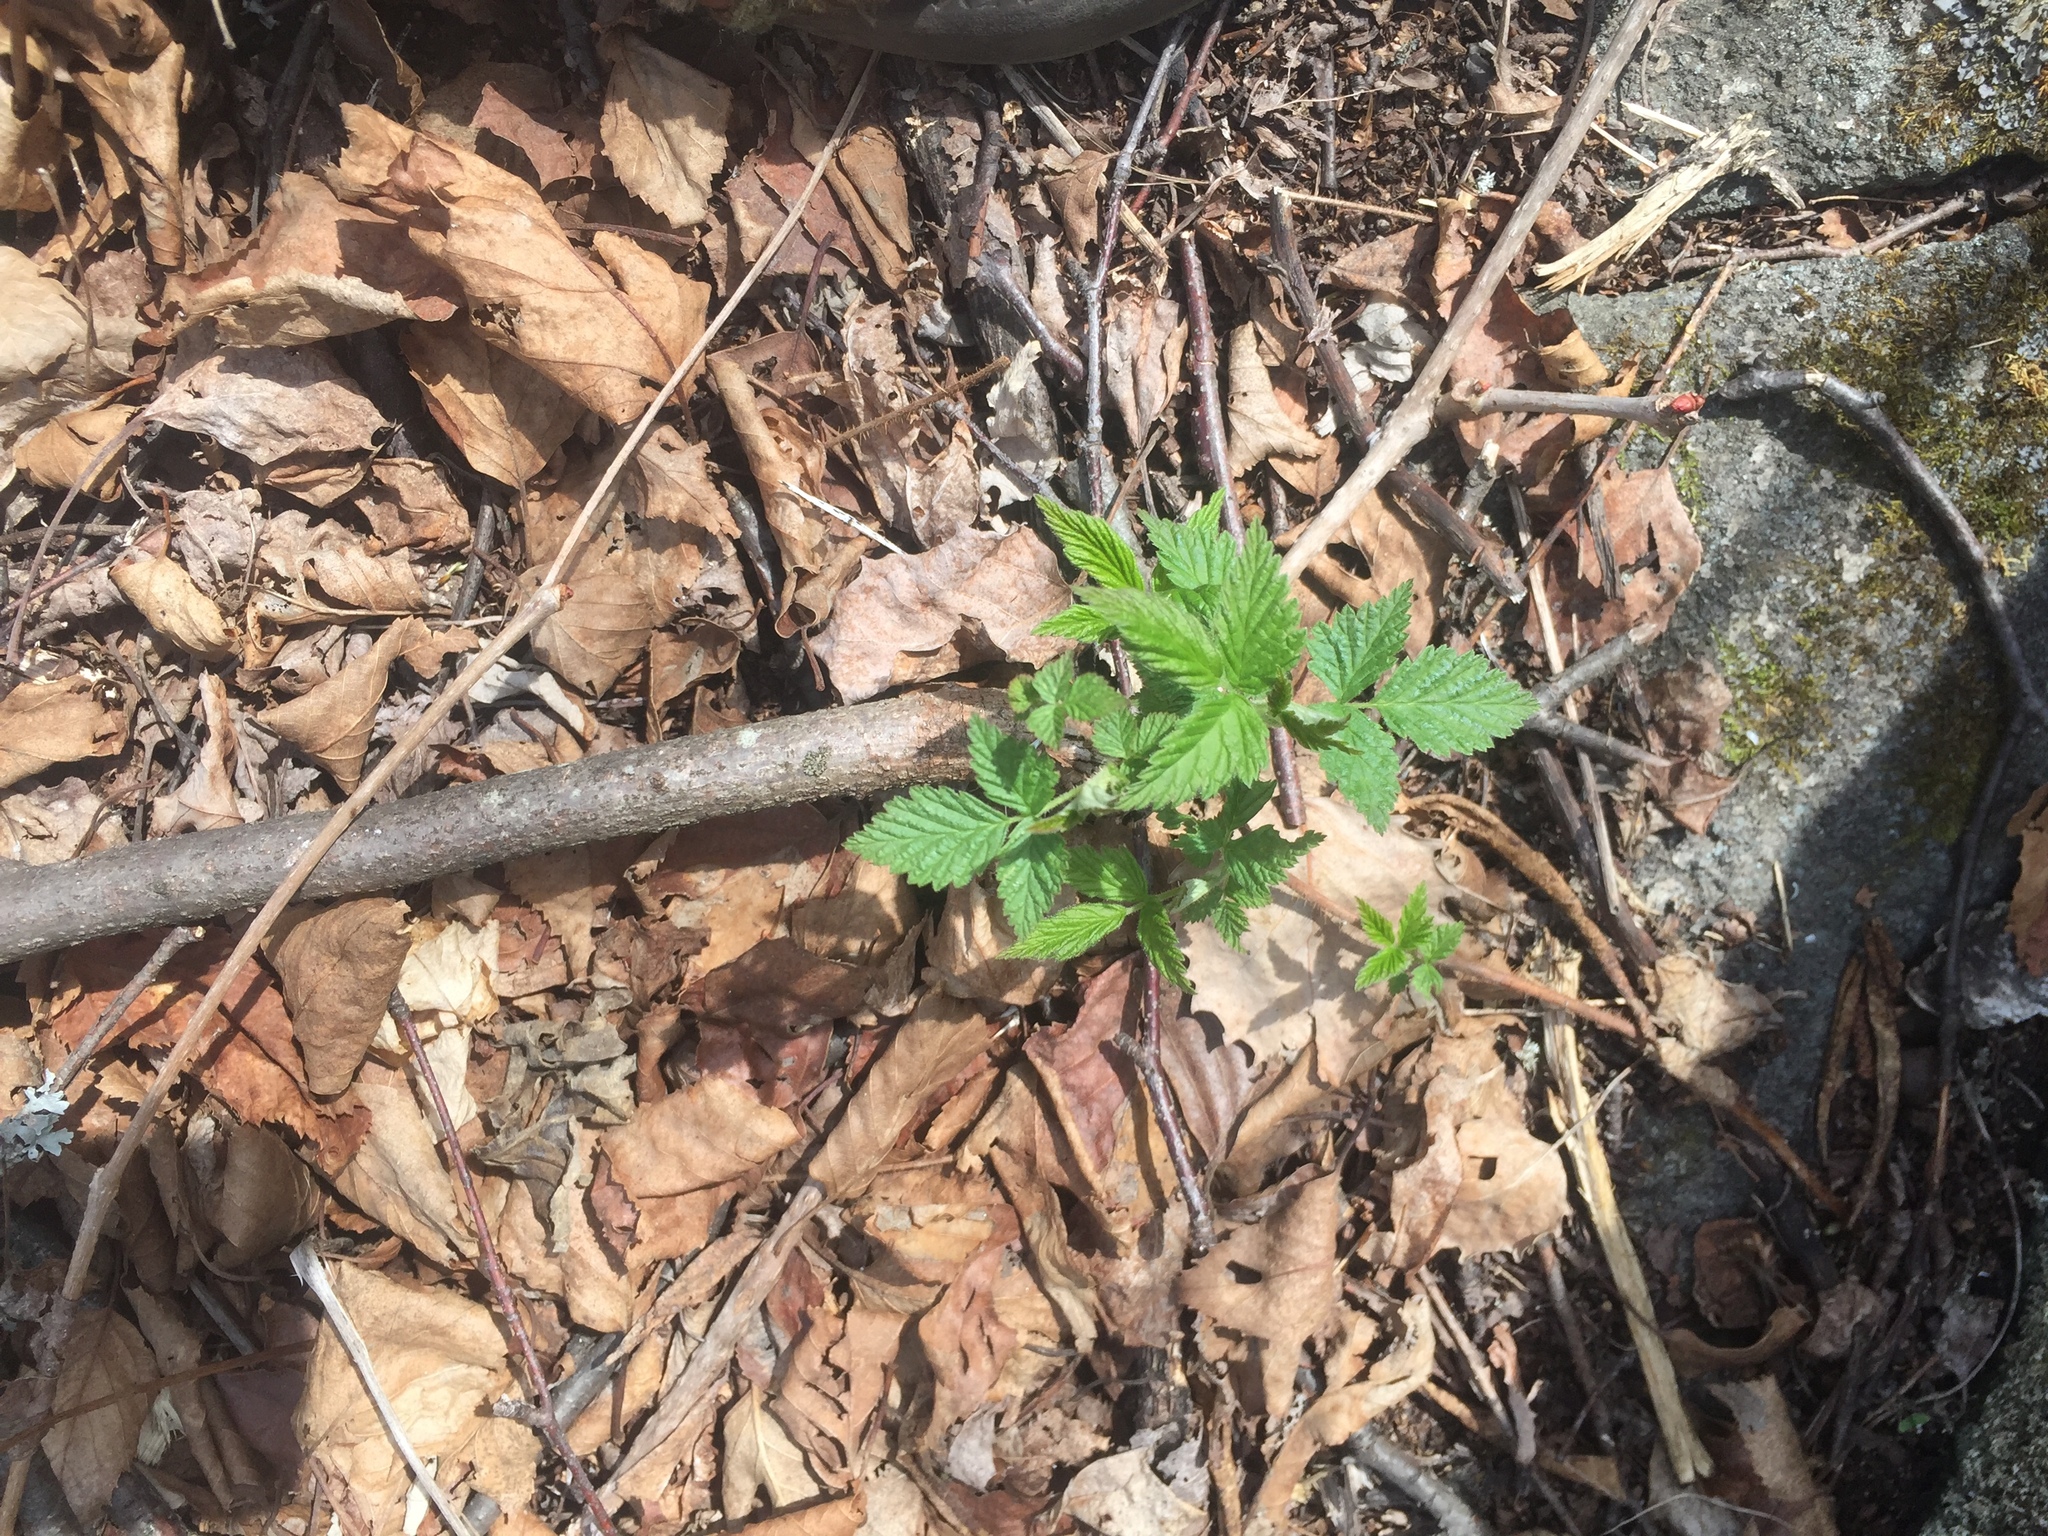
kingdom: Plantae
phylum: Tracheophyta
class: Magnoliopsida
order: Rosales
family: Rosaceae
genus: Rubus
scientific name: Rubus idaeus
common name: Raspberry
